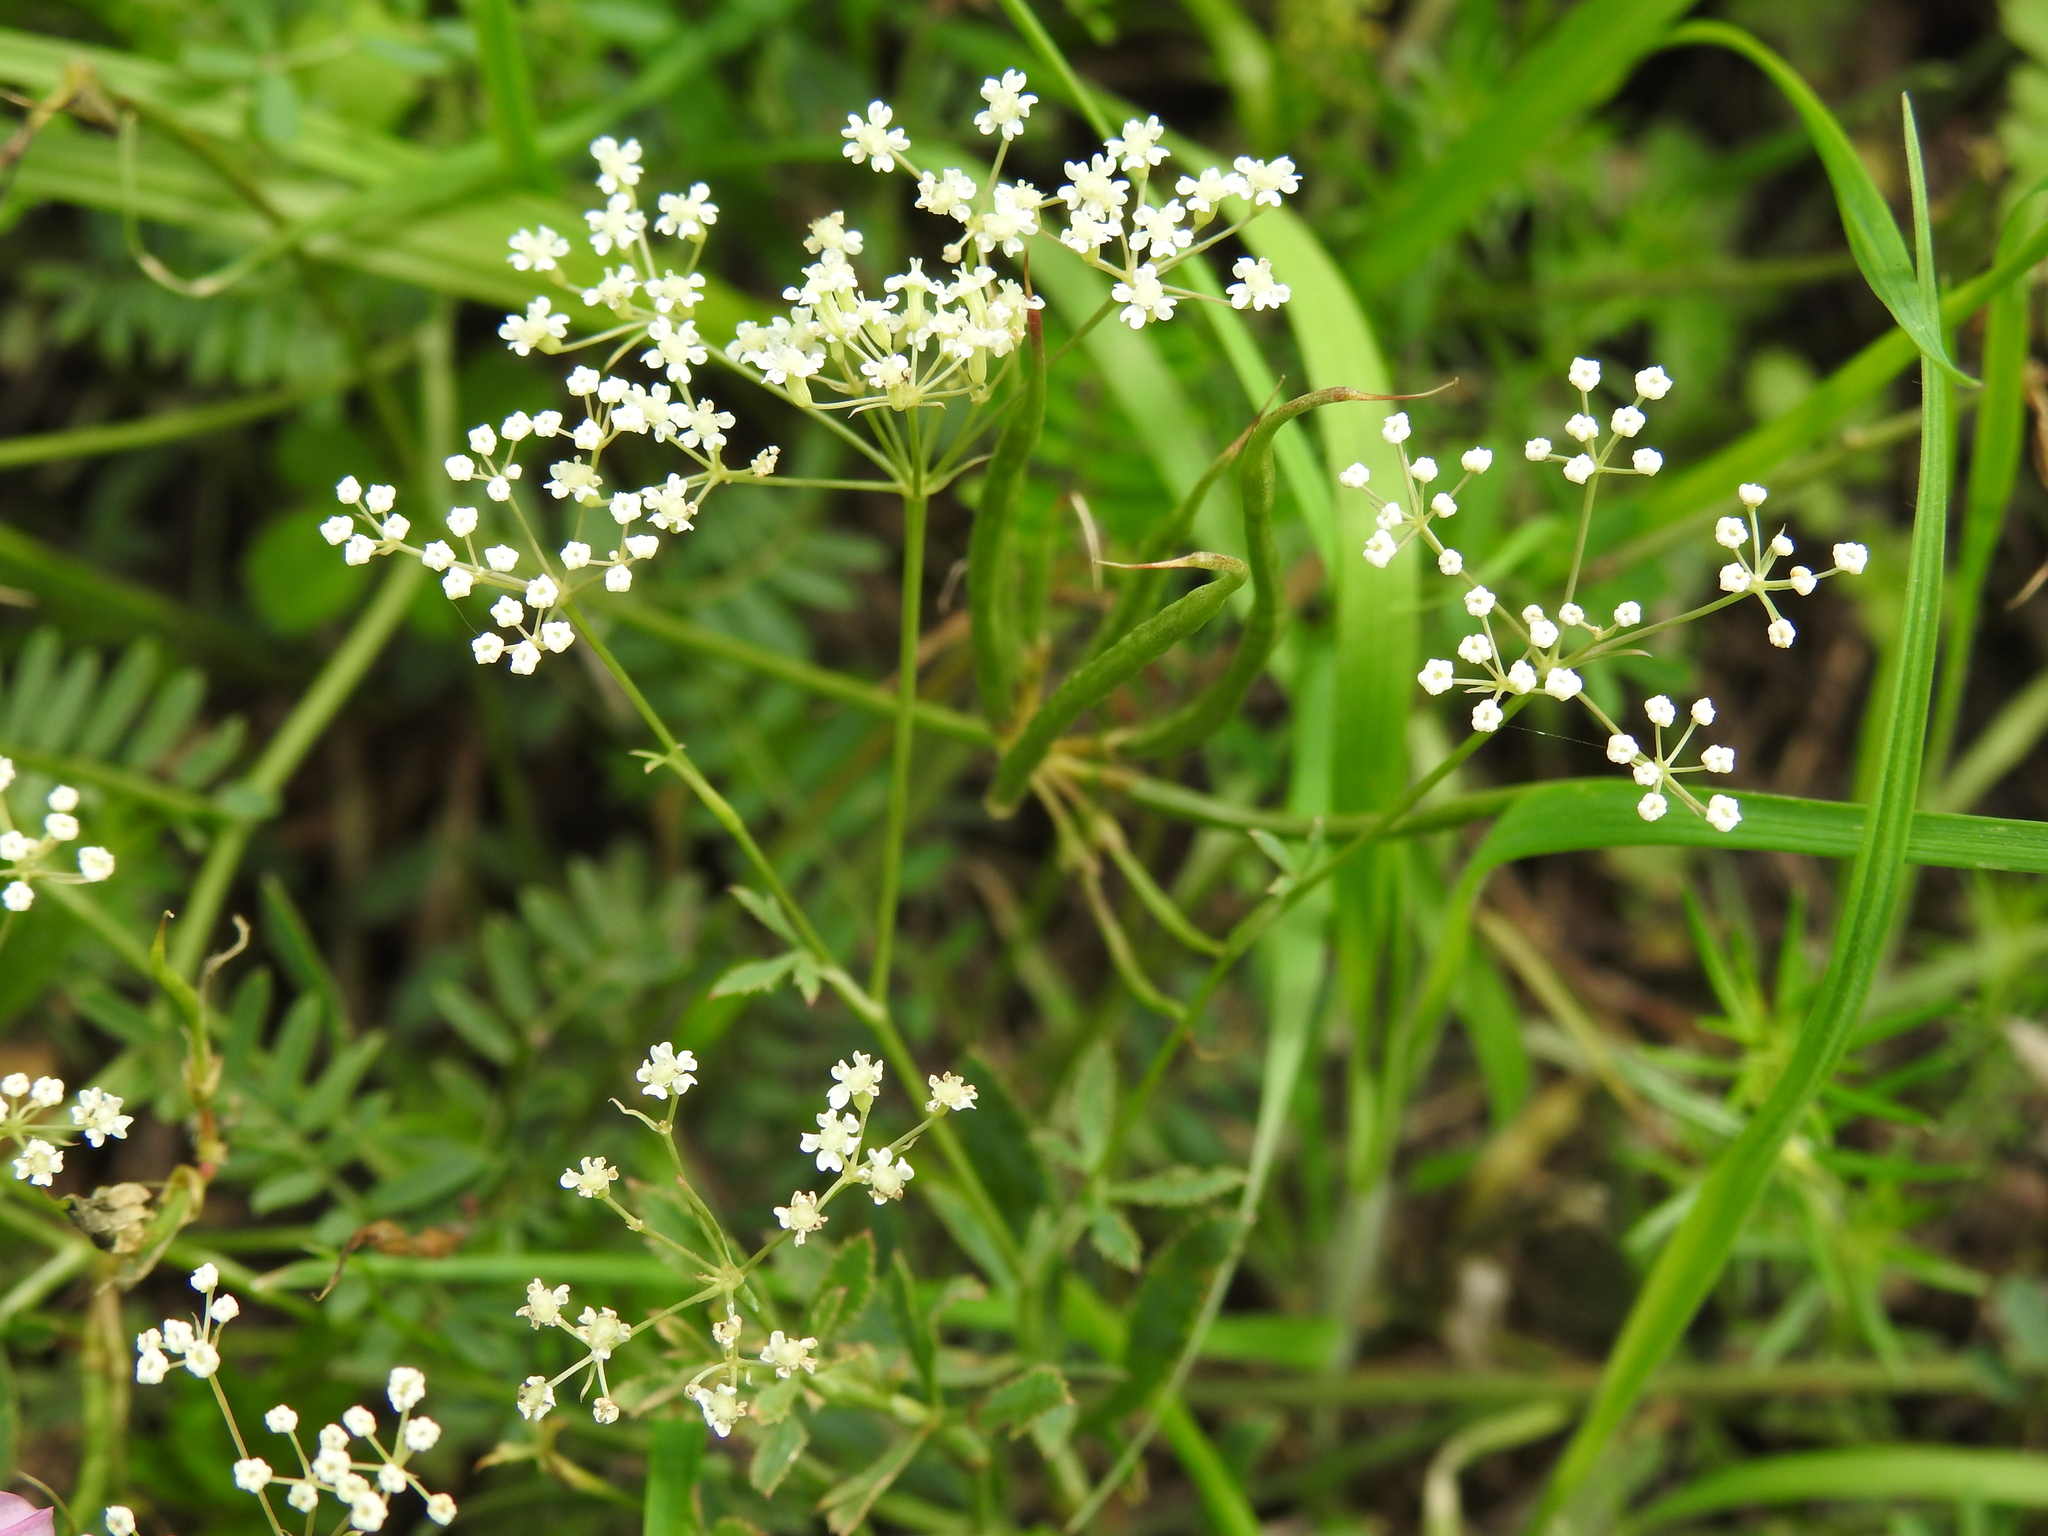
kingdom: Plantae
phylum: Tracheophyta
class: Magnoliopsida
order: Apiales
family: Apiaceae
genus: Falcaria
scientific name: Falcaria vulgaris
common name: Longleaf
